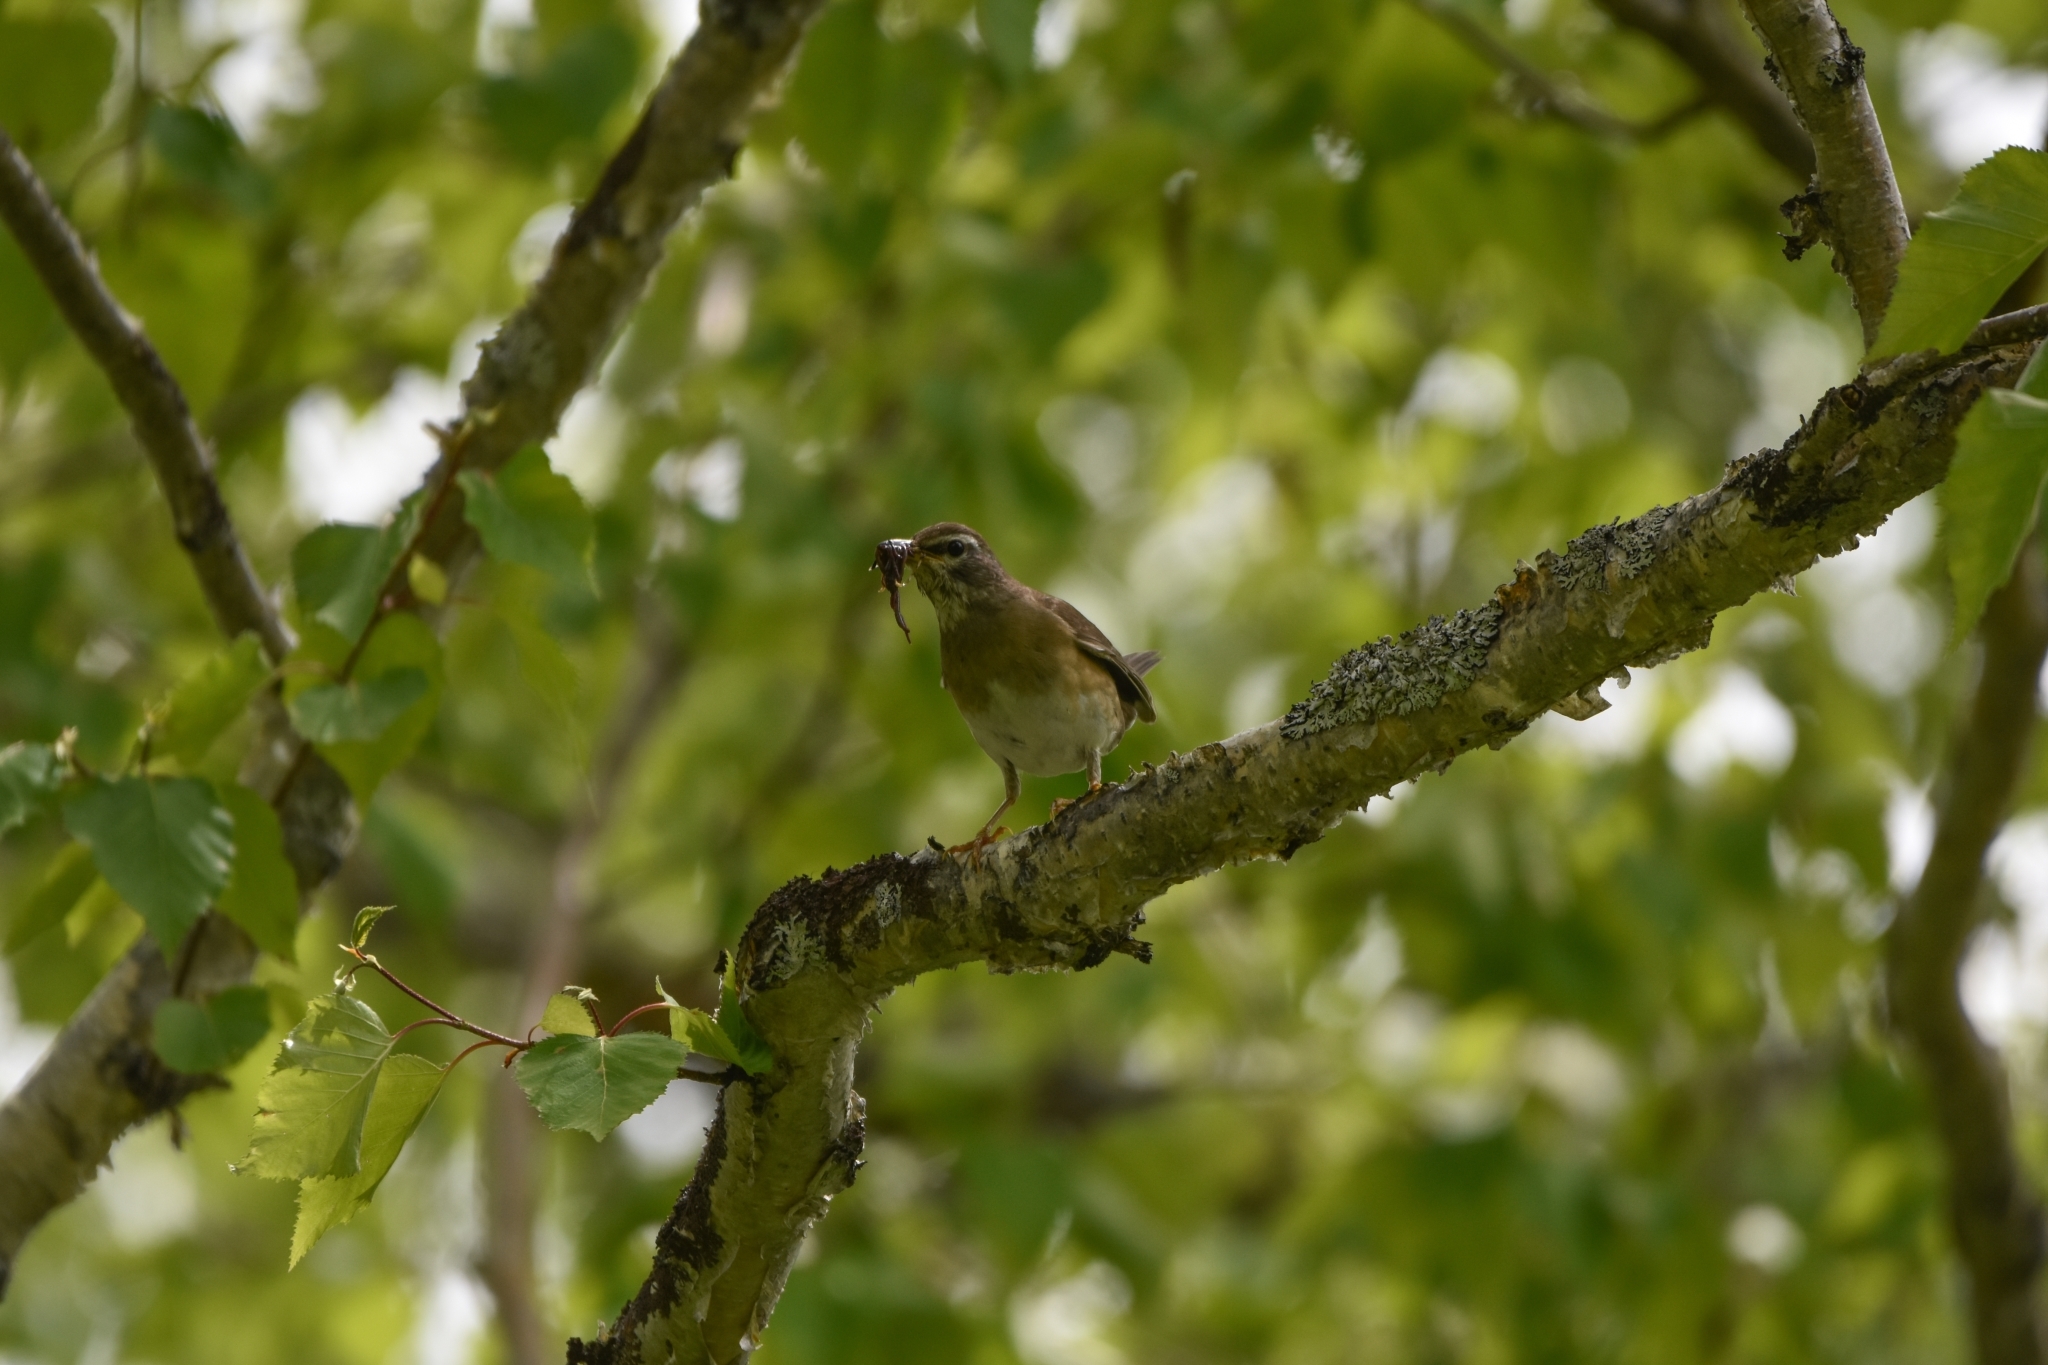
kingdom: Animalia
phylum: Chordata
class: Aves
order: Passeriformes
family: Turdidae
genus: Turdus
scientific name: Turdus obscurus
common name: Eyebrowed thrush
